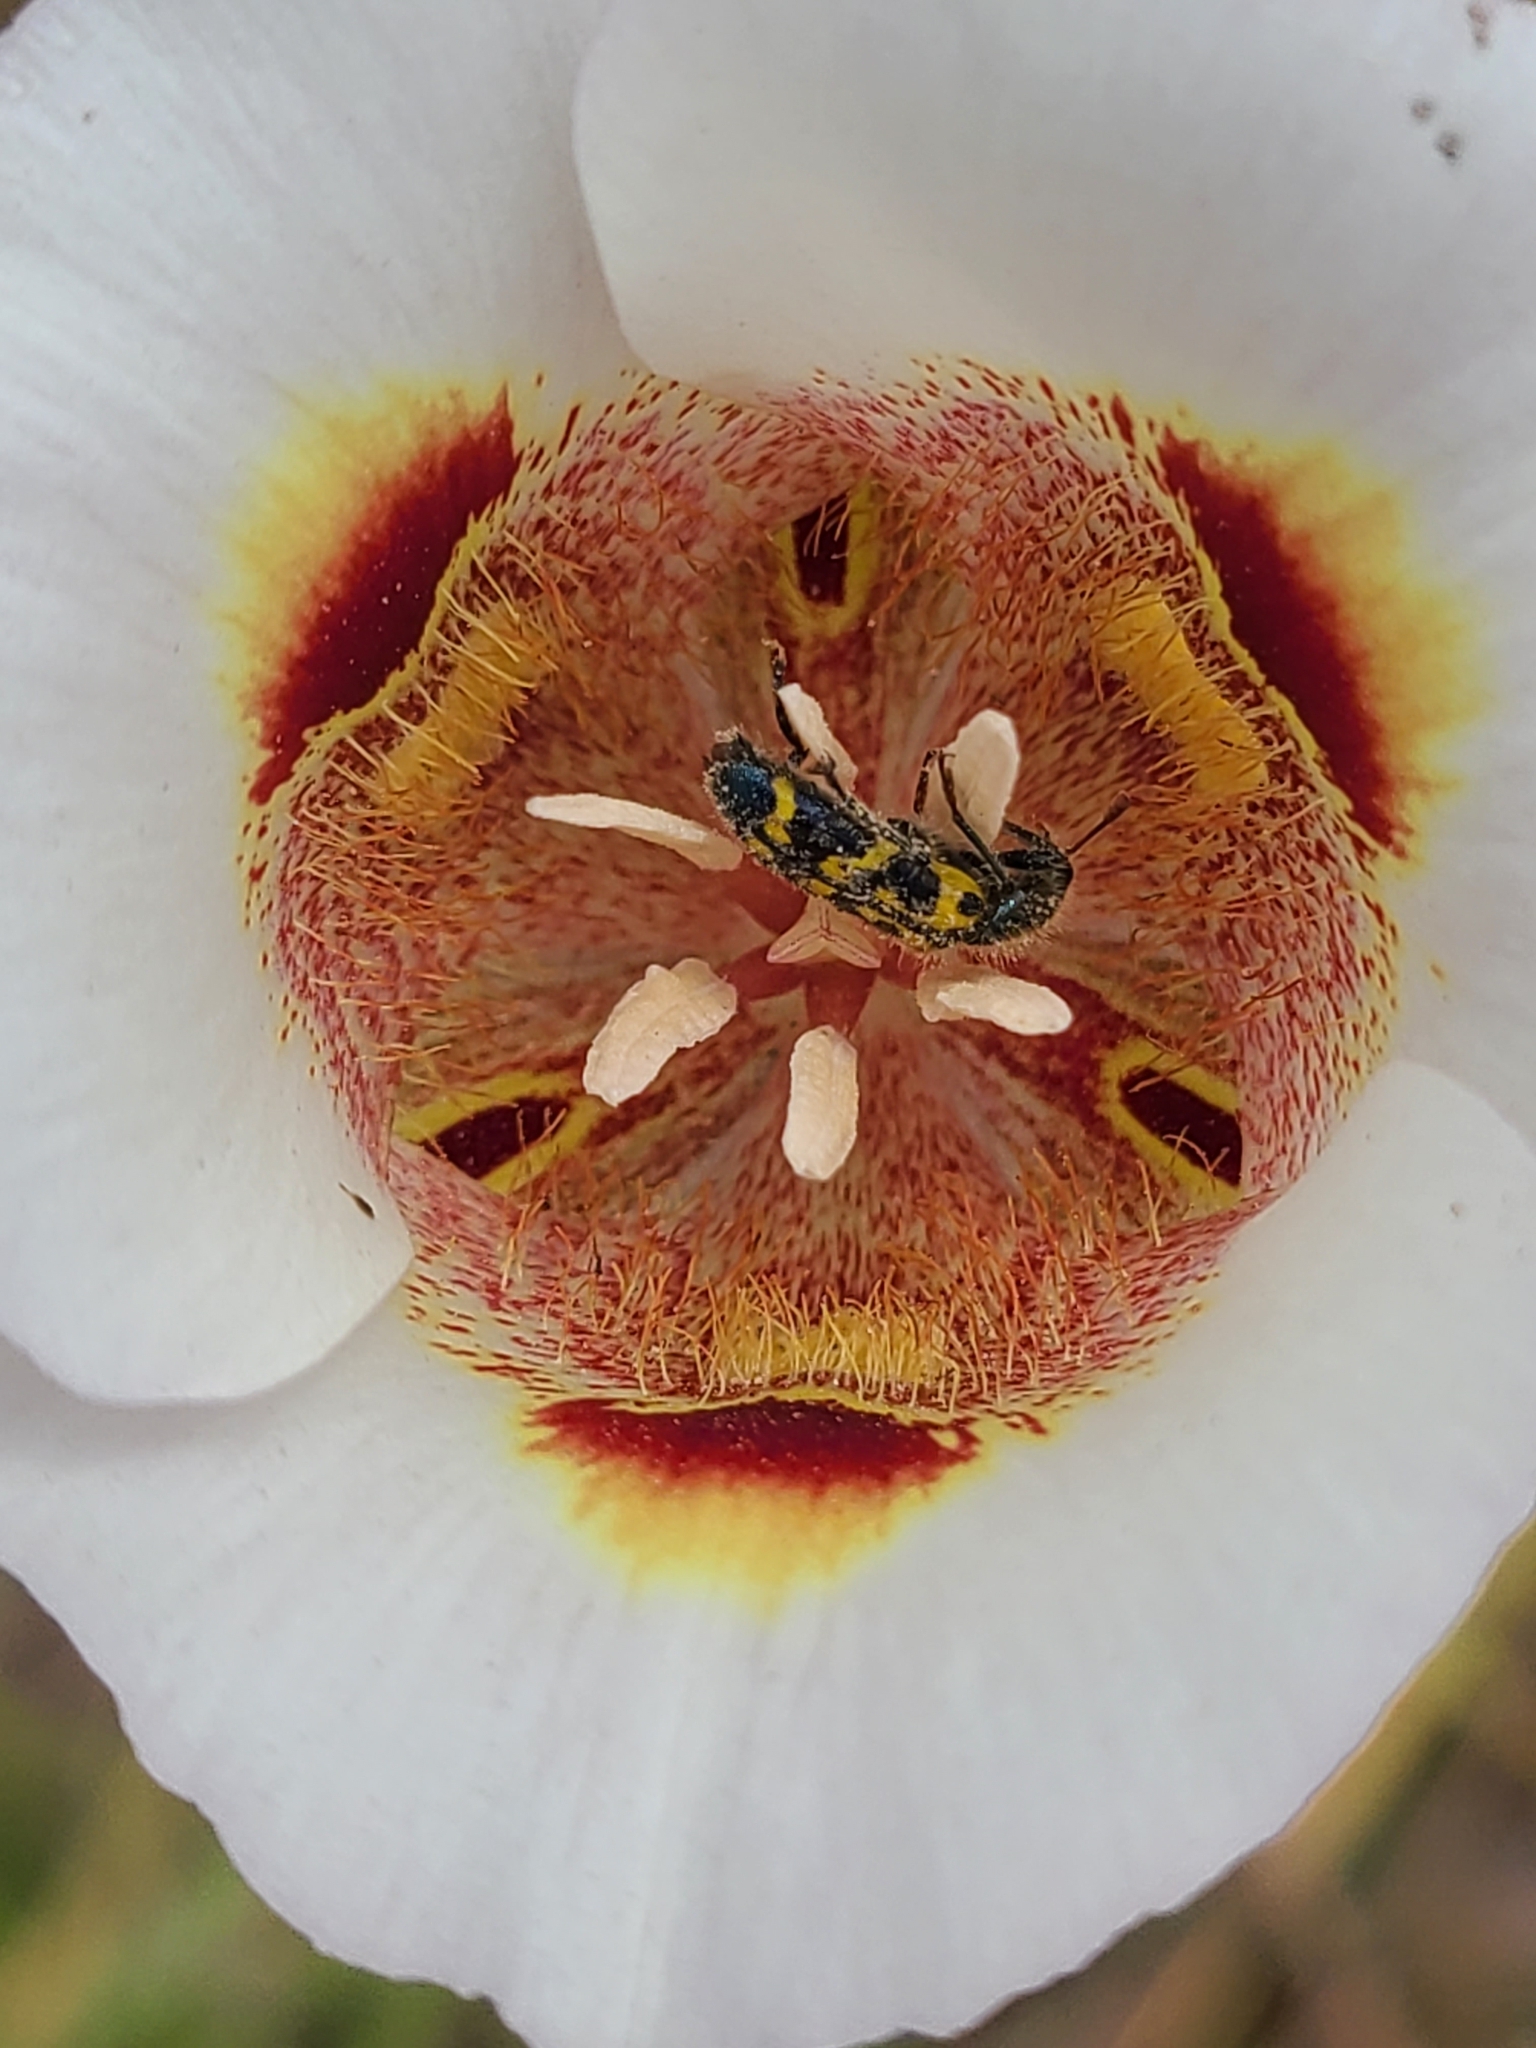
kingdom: Animalia
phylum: Arthropoda
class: Insecta
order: Coleoptera
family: Cleridae
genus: Trichodes
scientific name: Trichodes ornatus
